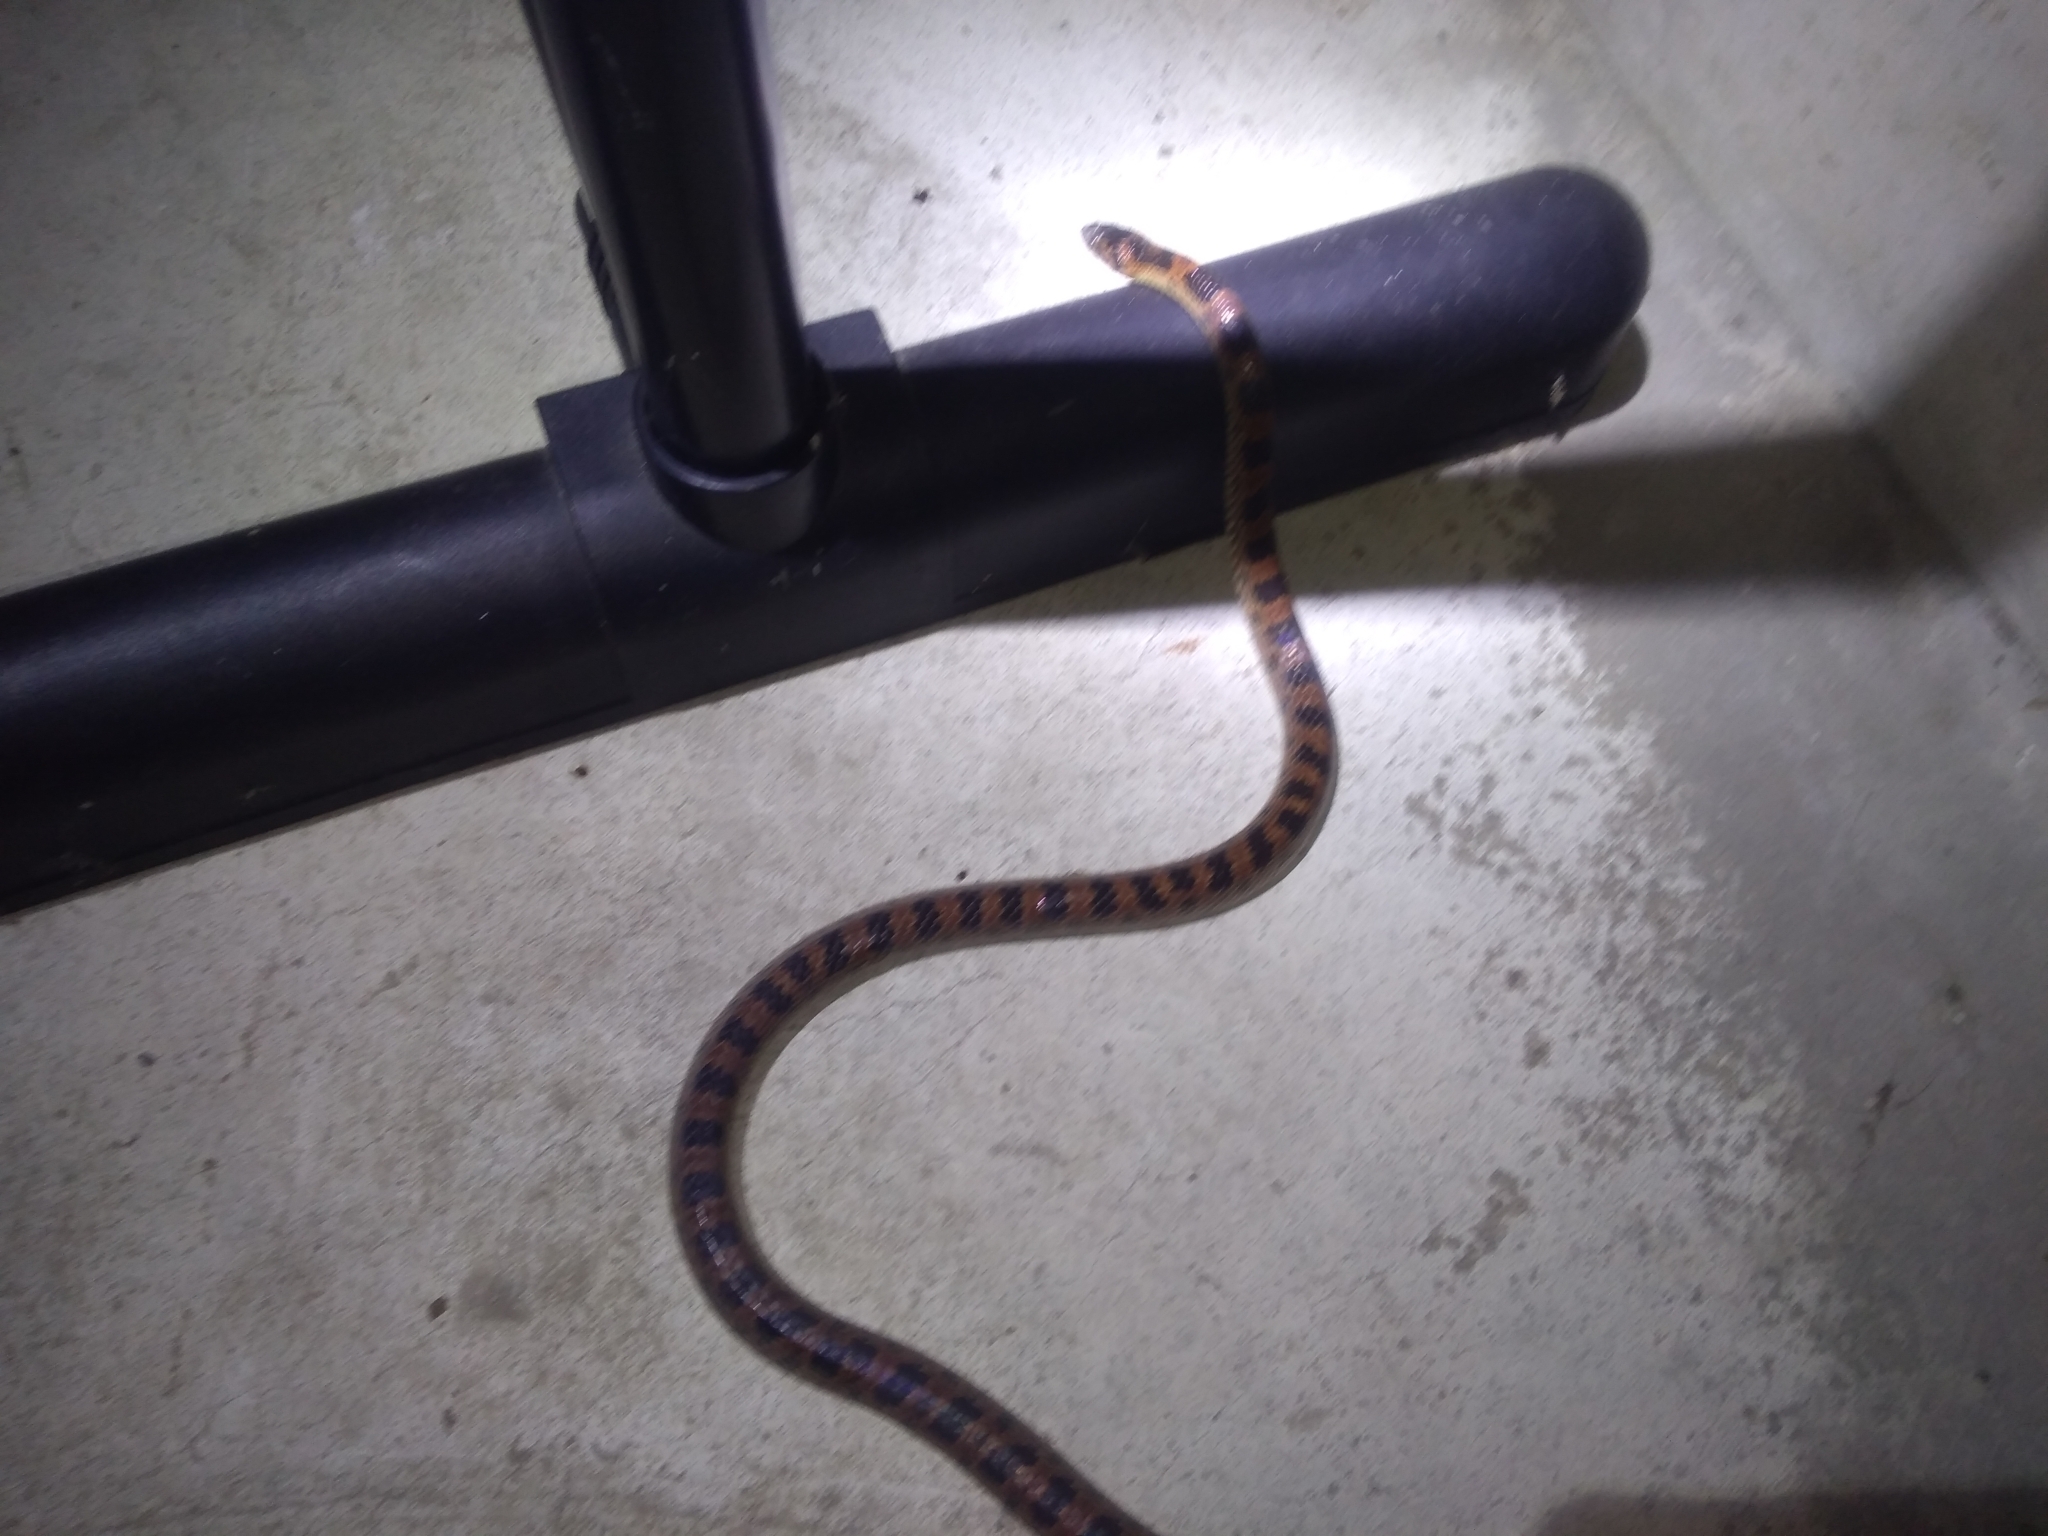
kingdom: Animalia
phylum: Chordata
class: Squamata
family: Colubridae
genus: Lycodon
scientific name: Lycodon rufozonatus
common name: Red-banded snake
